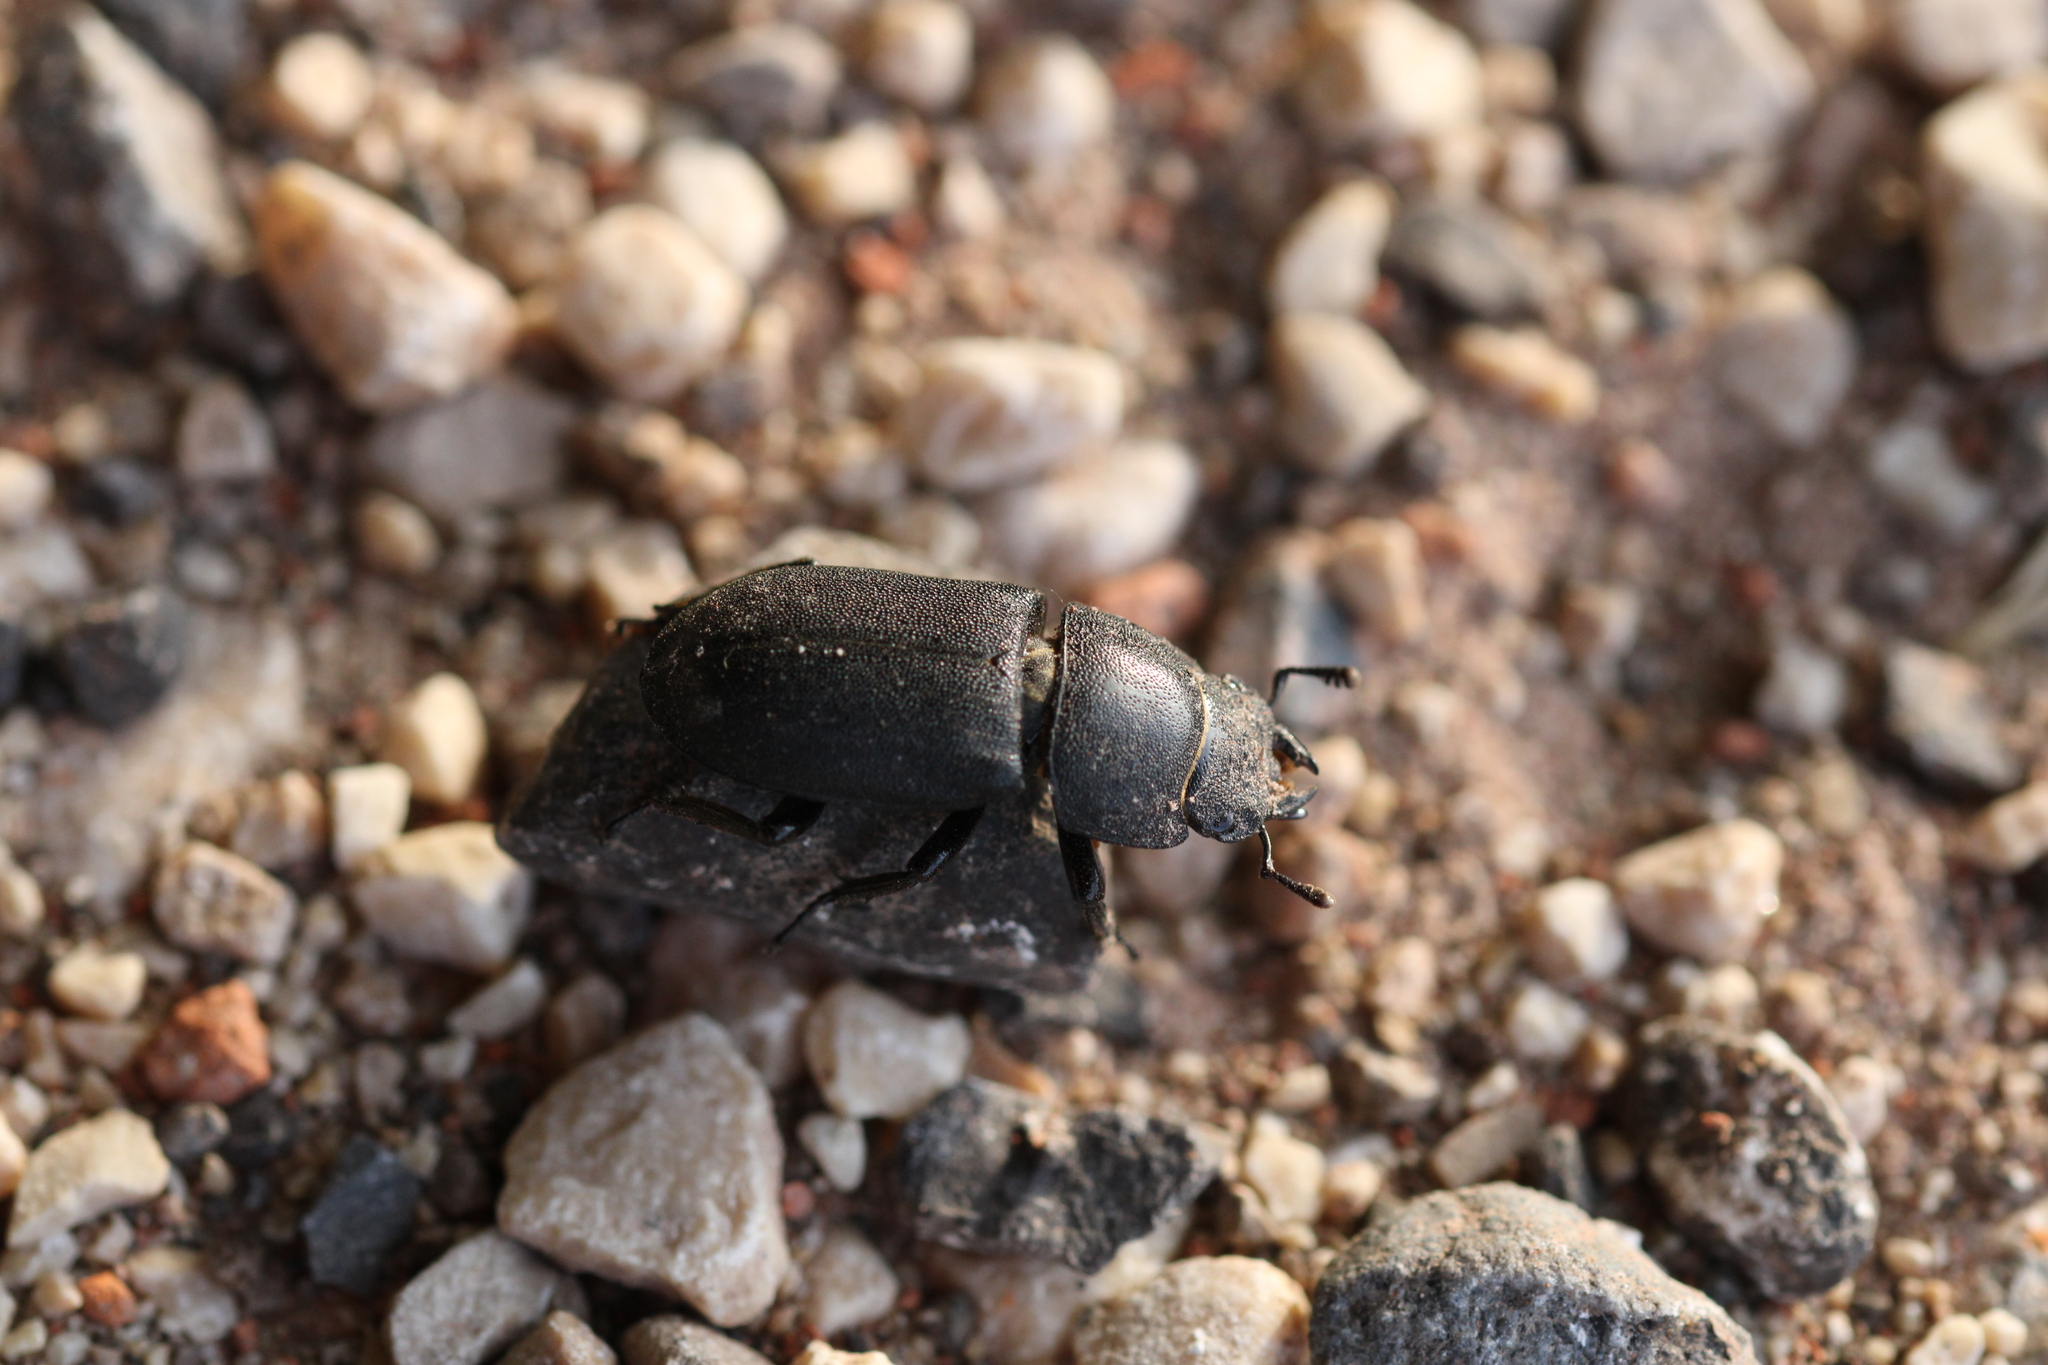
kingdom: Animalia
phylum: Arthropoda
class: Insecta
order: Coleoptera
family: Lucanidae
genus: Dorcus
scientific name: Dorcus parallelipipedus
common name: Lesser stag beetle
